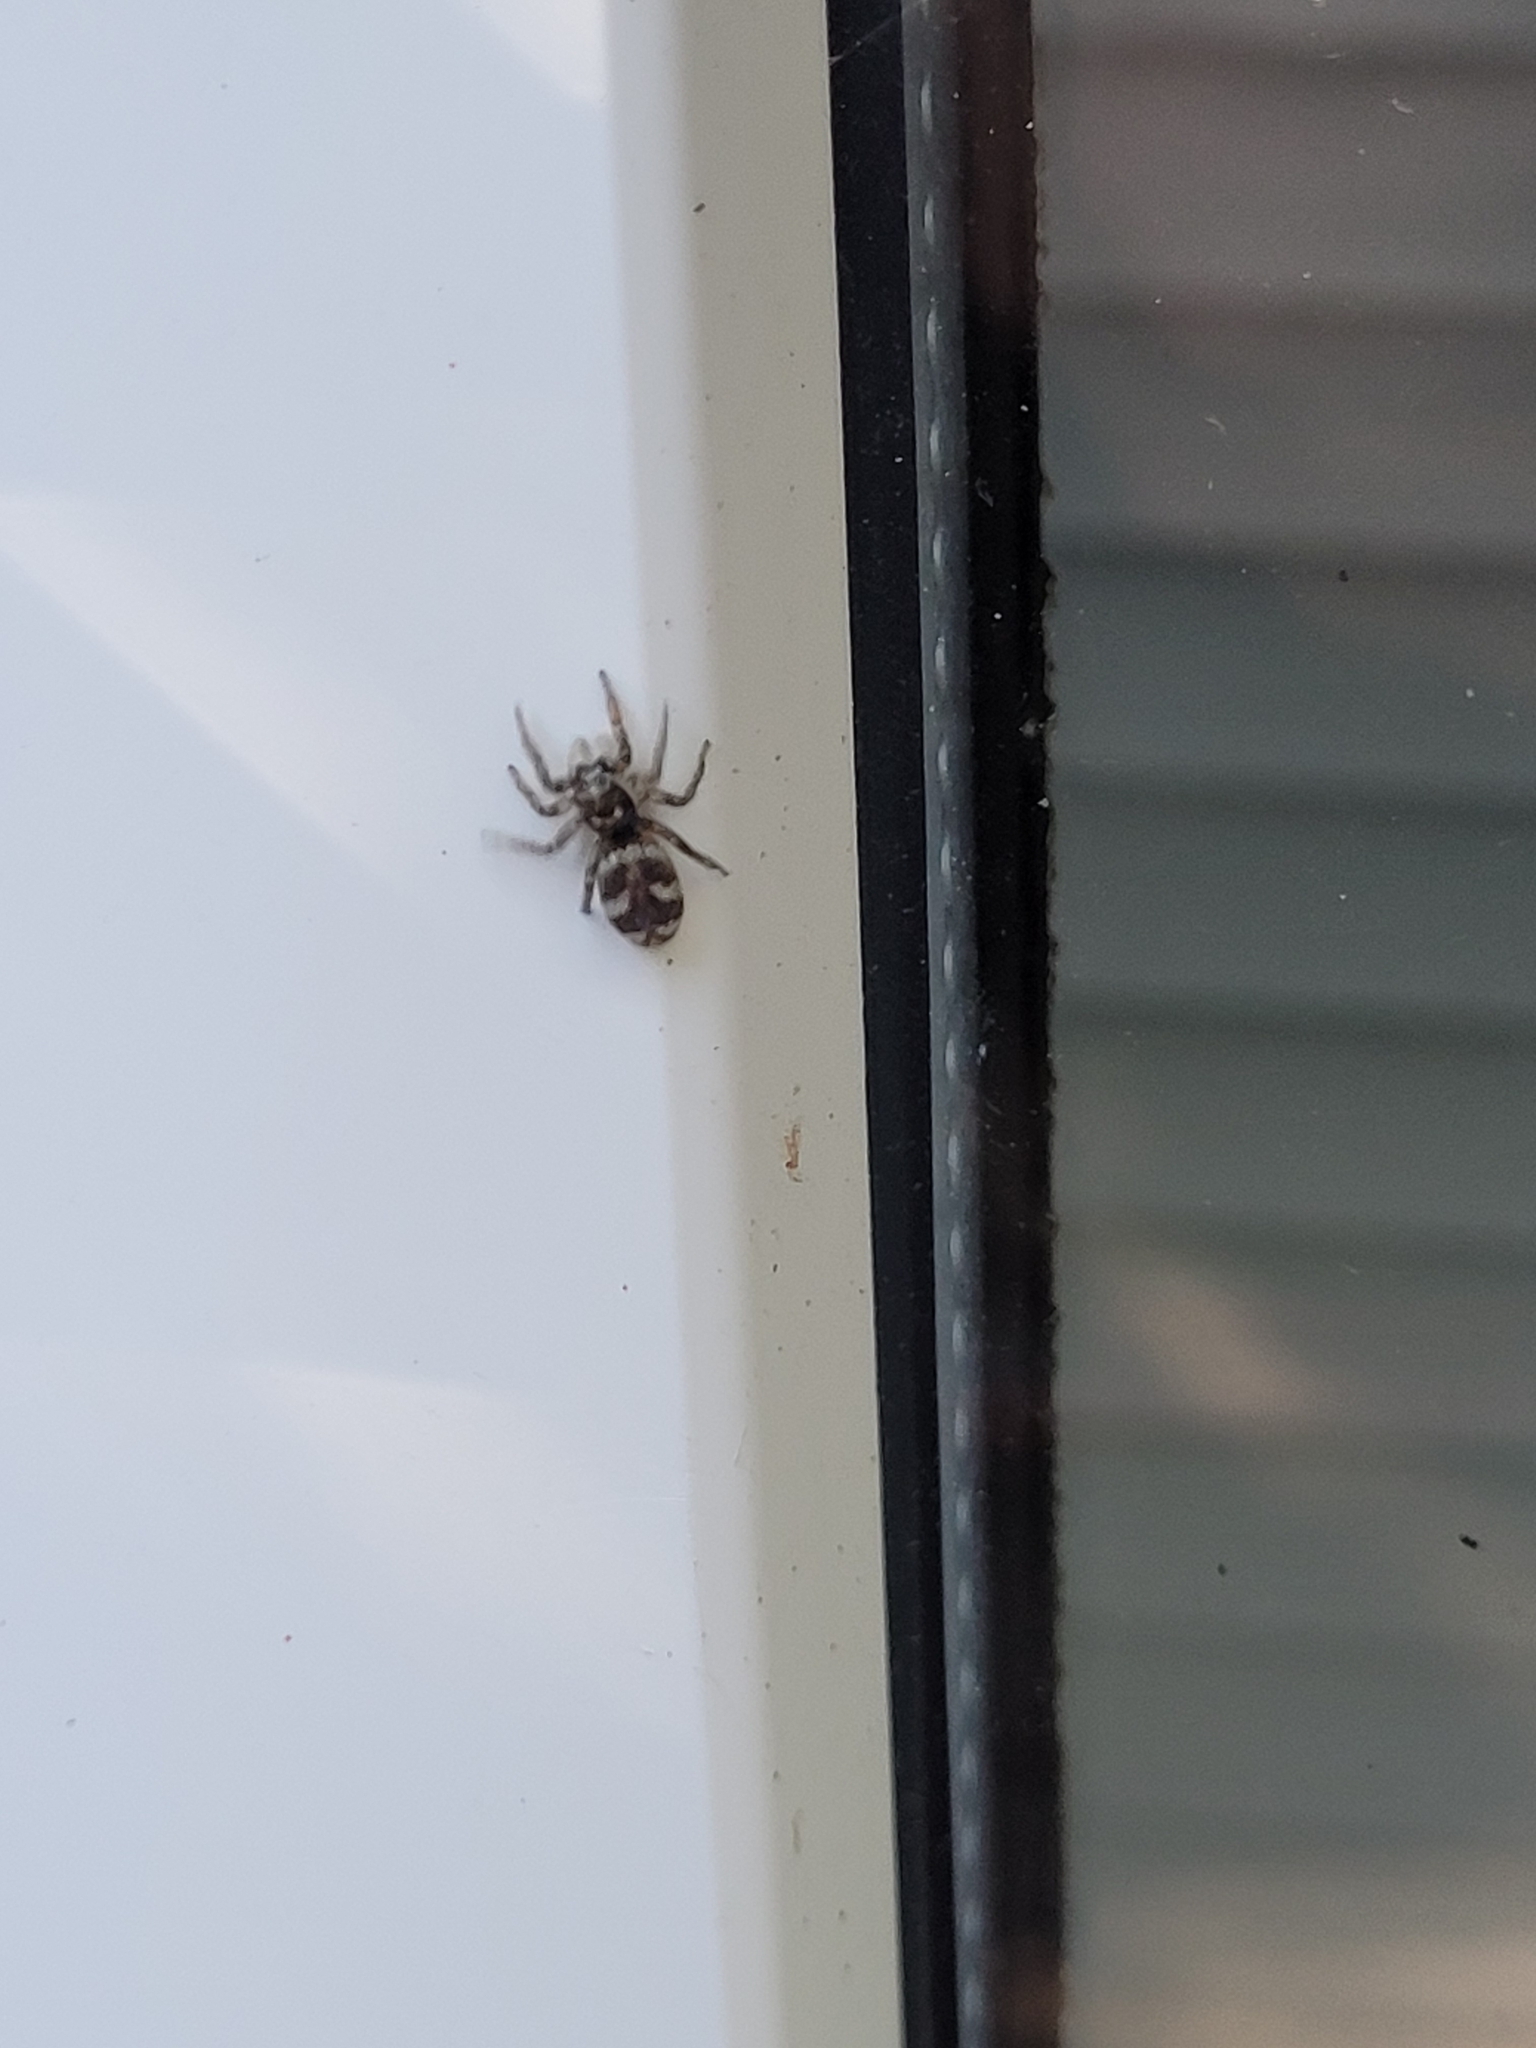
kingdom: Animalia
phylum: Arthropoda
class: Arachnida
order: Araneae
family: Salticidae
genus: Salticus
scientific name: Salticus scenicus
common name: Zebra jumper
